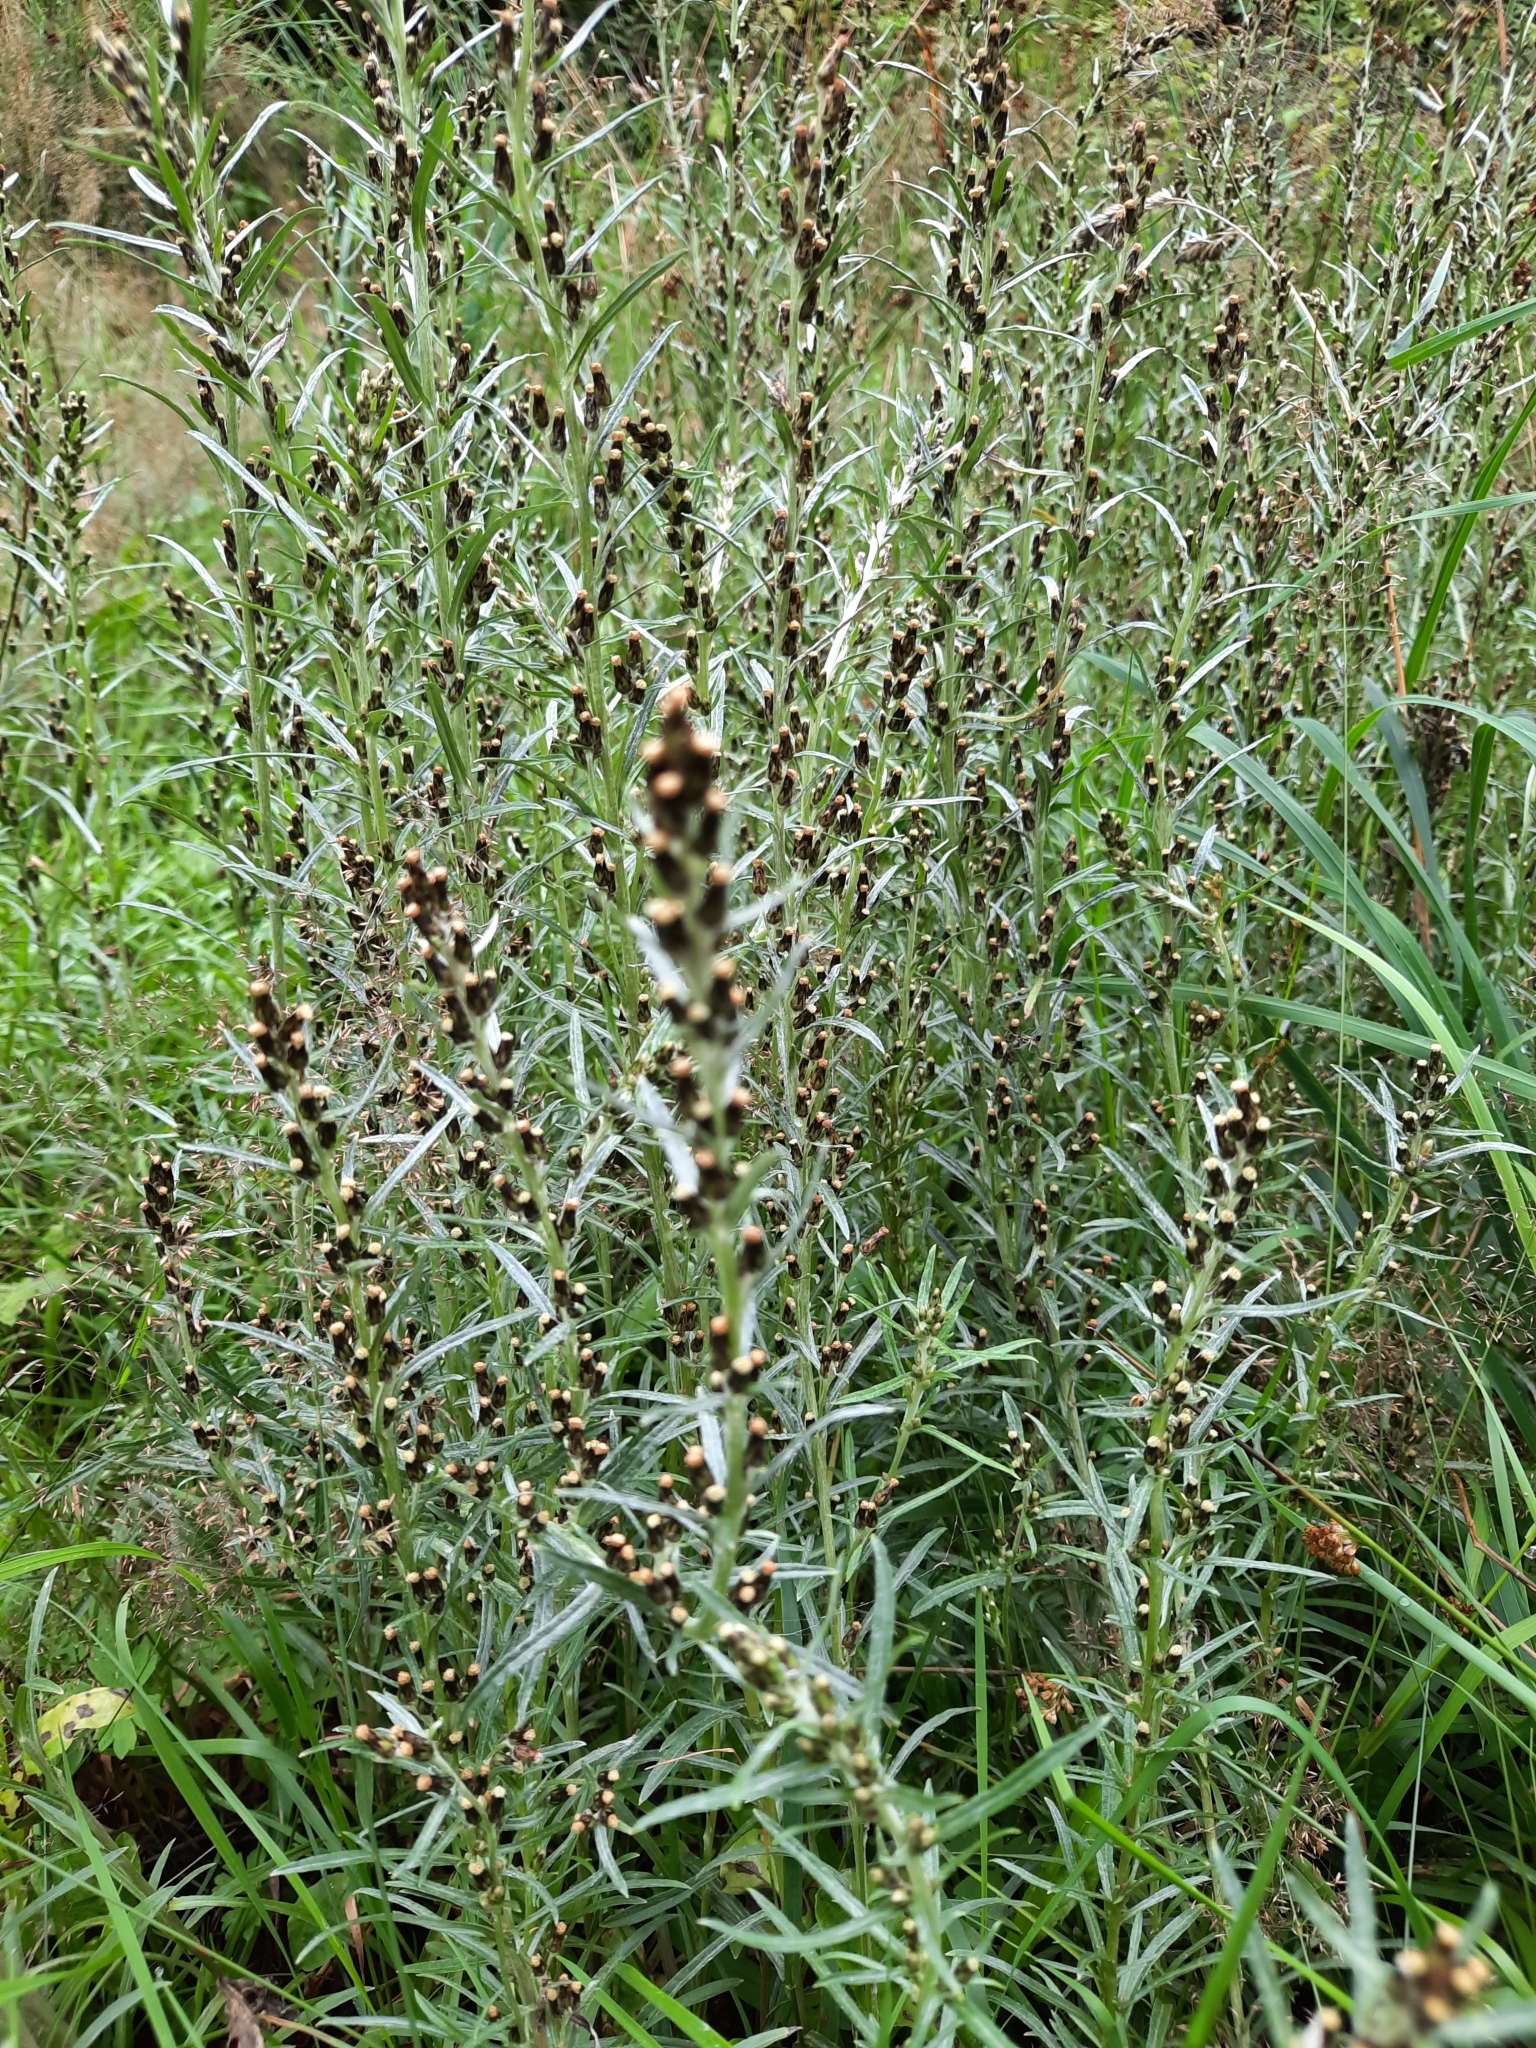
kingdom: Plantae
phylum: Tracheophyta
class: Magnoliopsida
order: Asterales
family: Asteraceae
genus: Omalotheca
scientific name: Omalotheca sylvatica
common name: Heath cudweed
